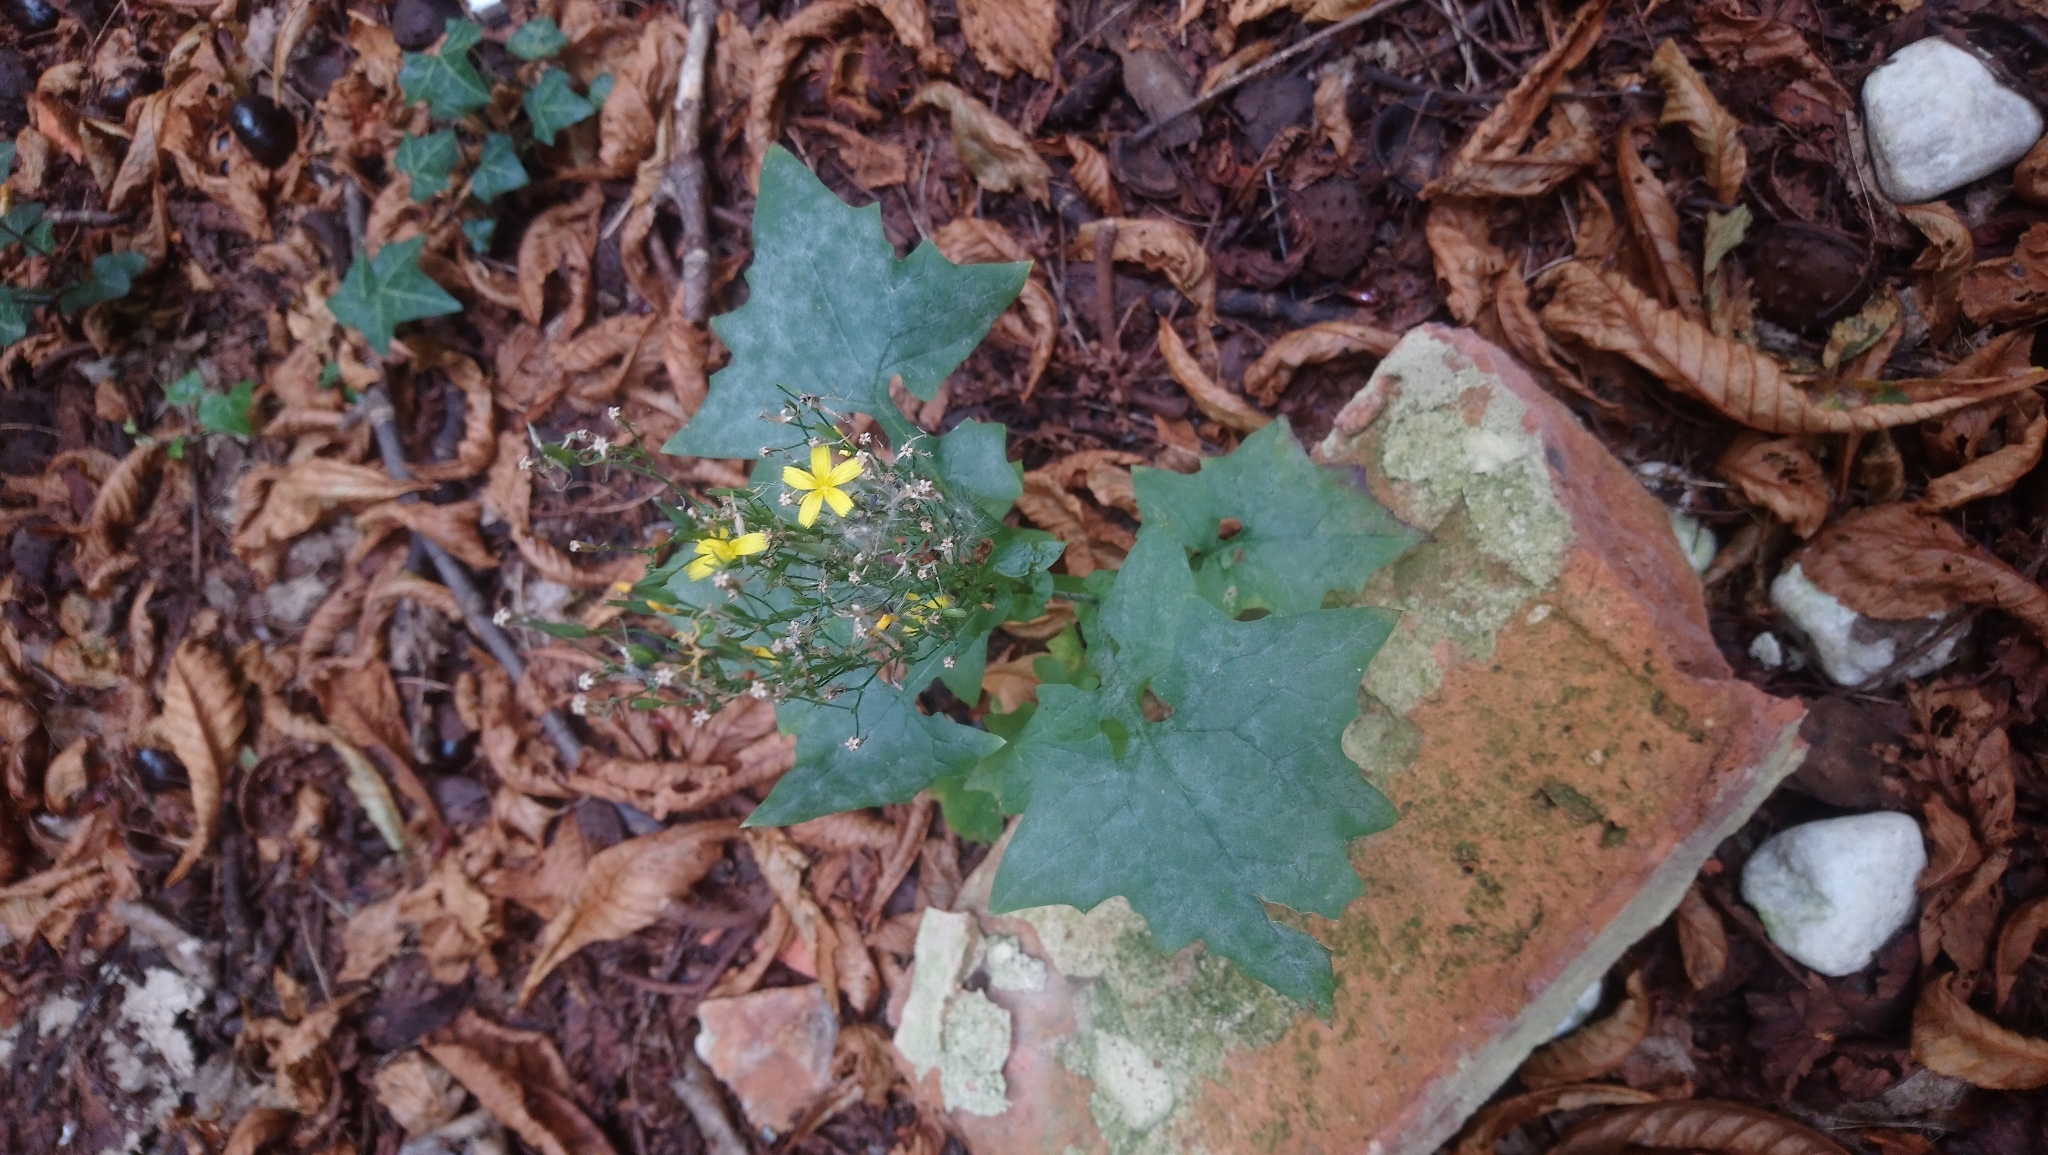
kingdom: Plantae
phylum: Tracheophyta
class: Magnoliopsida
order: Asterales
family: Asteraceae
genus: Mycelis
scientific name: Mycelis muralis
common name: Wall lettuce
